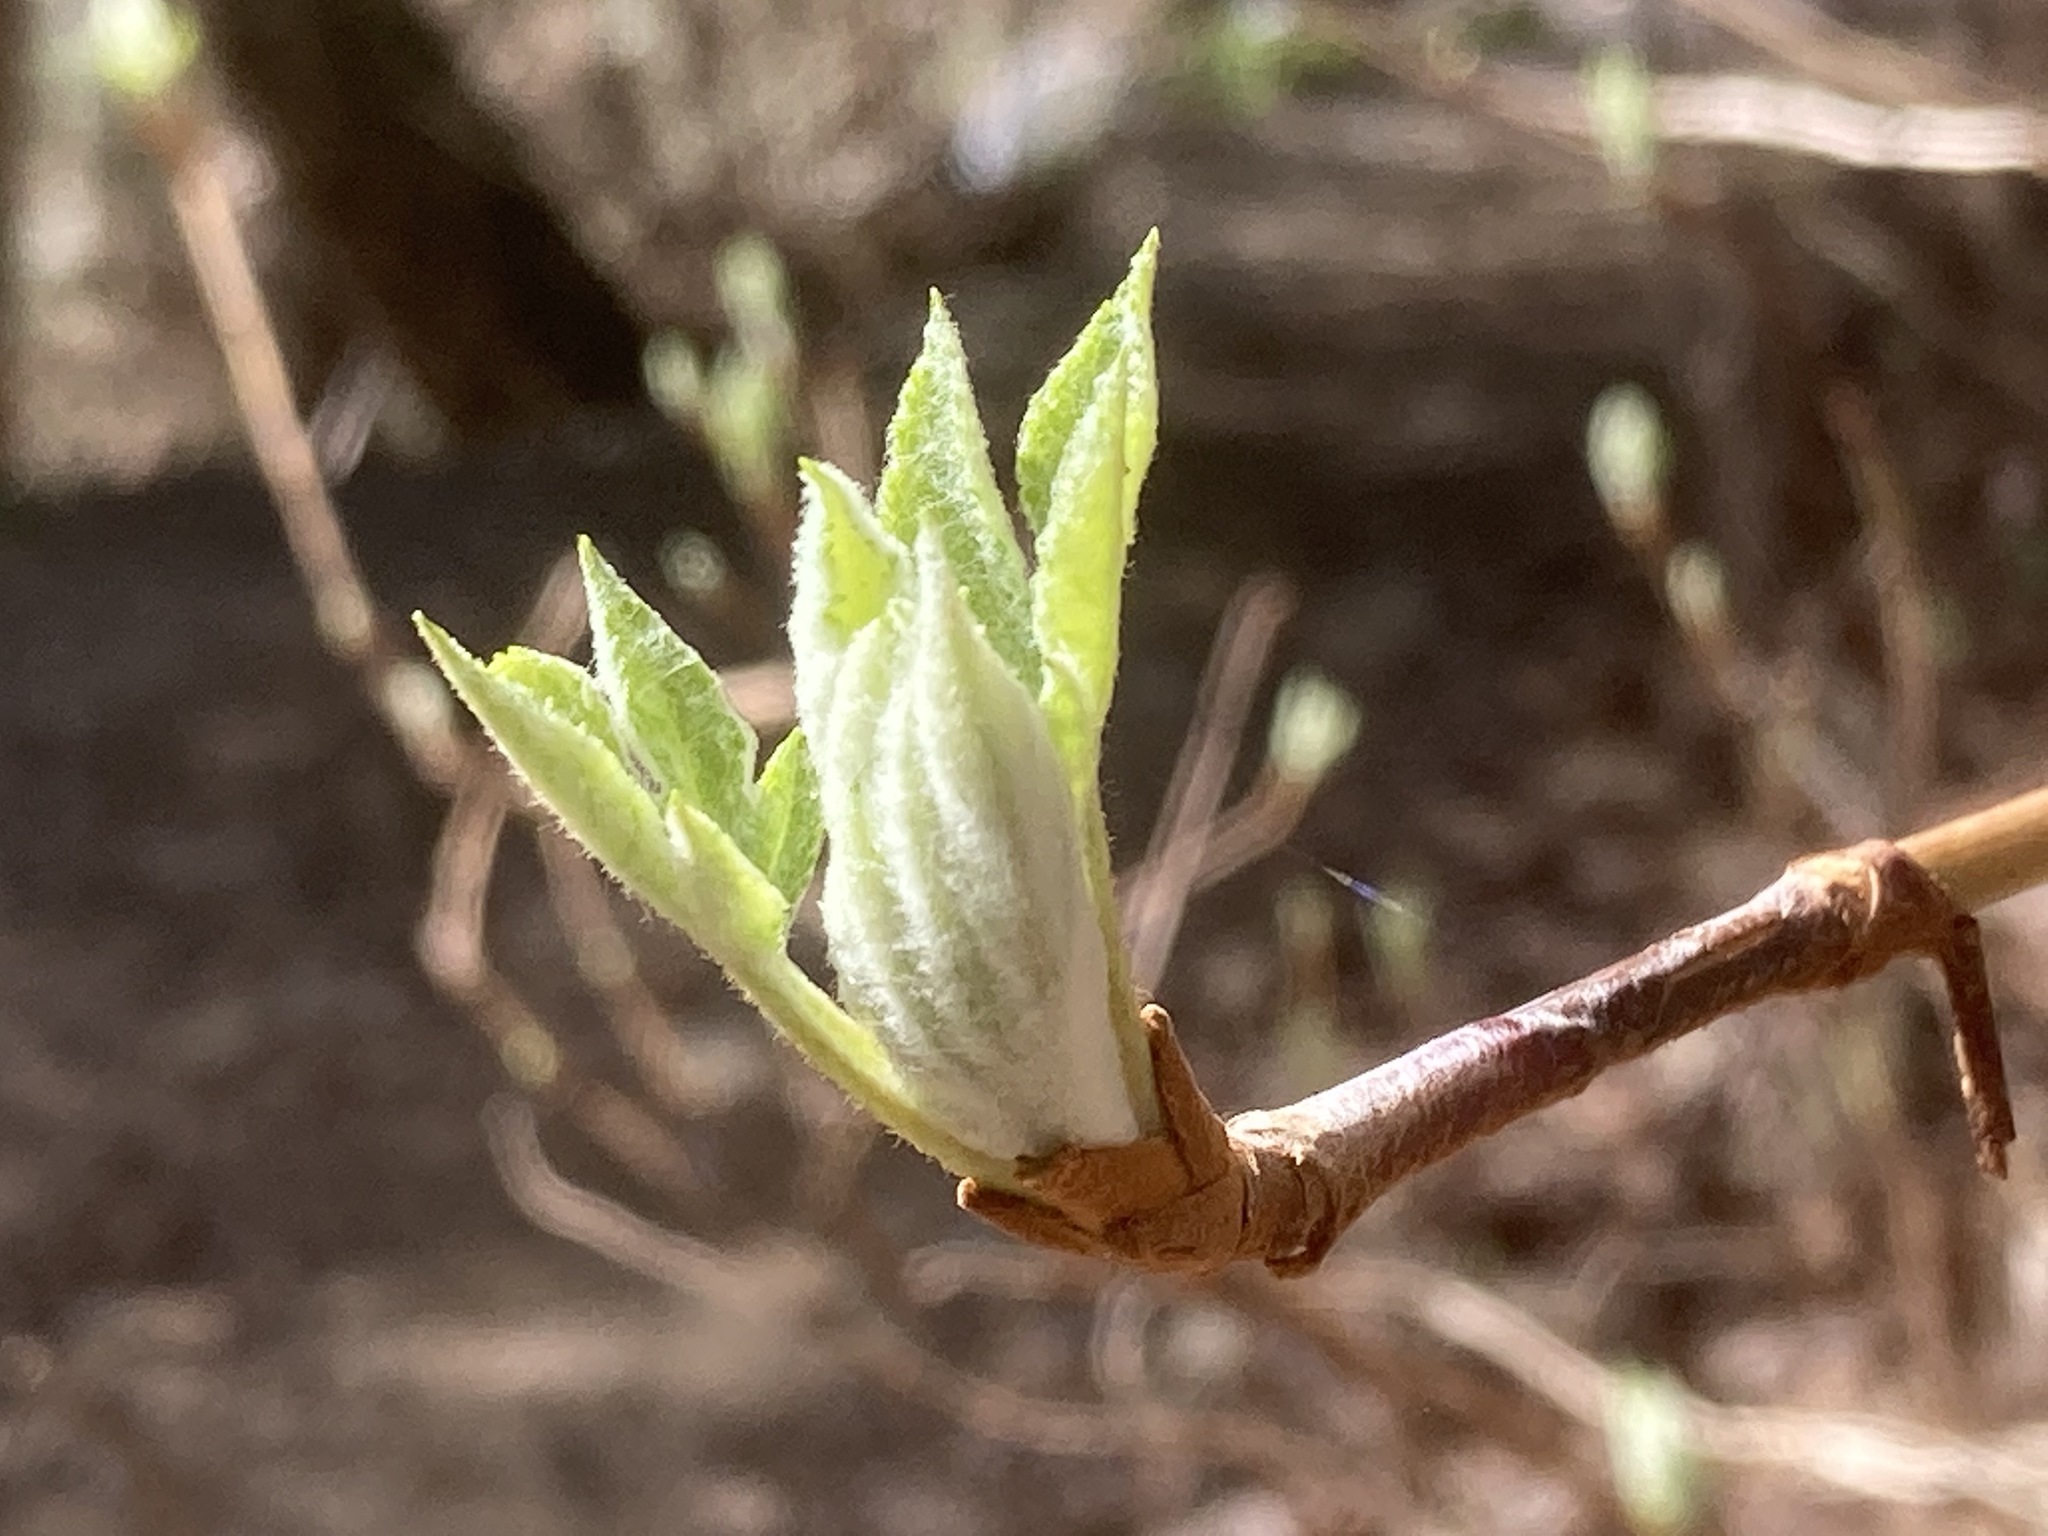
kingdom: Plantae
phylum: Tracheophyta
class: Magnoliopsida
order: Cornales
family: Hydrangeaceae
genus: Hydrangea
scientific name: Hydrangea quercifolia
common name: Oak-leaf hydrangea
